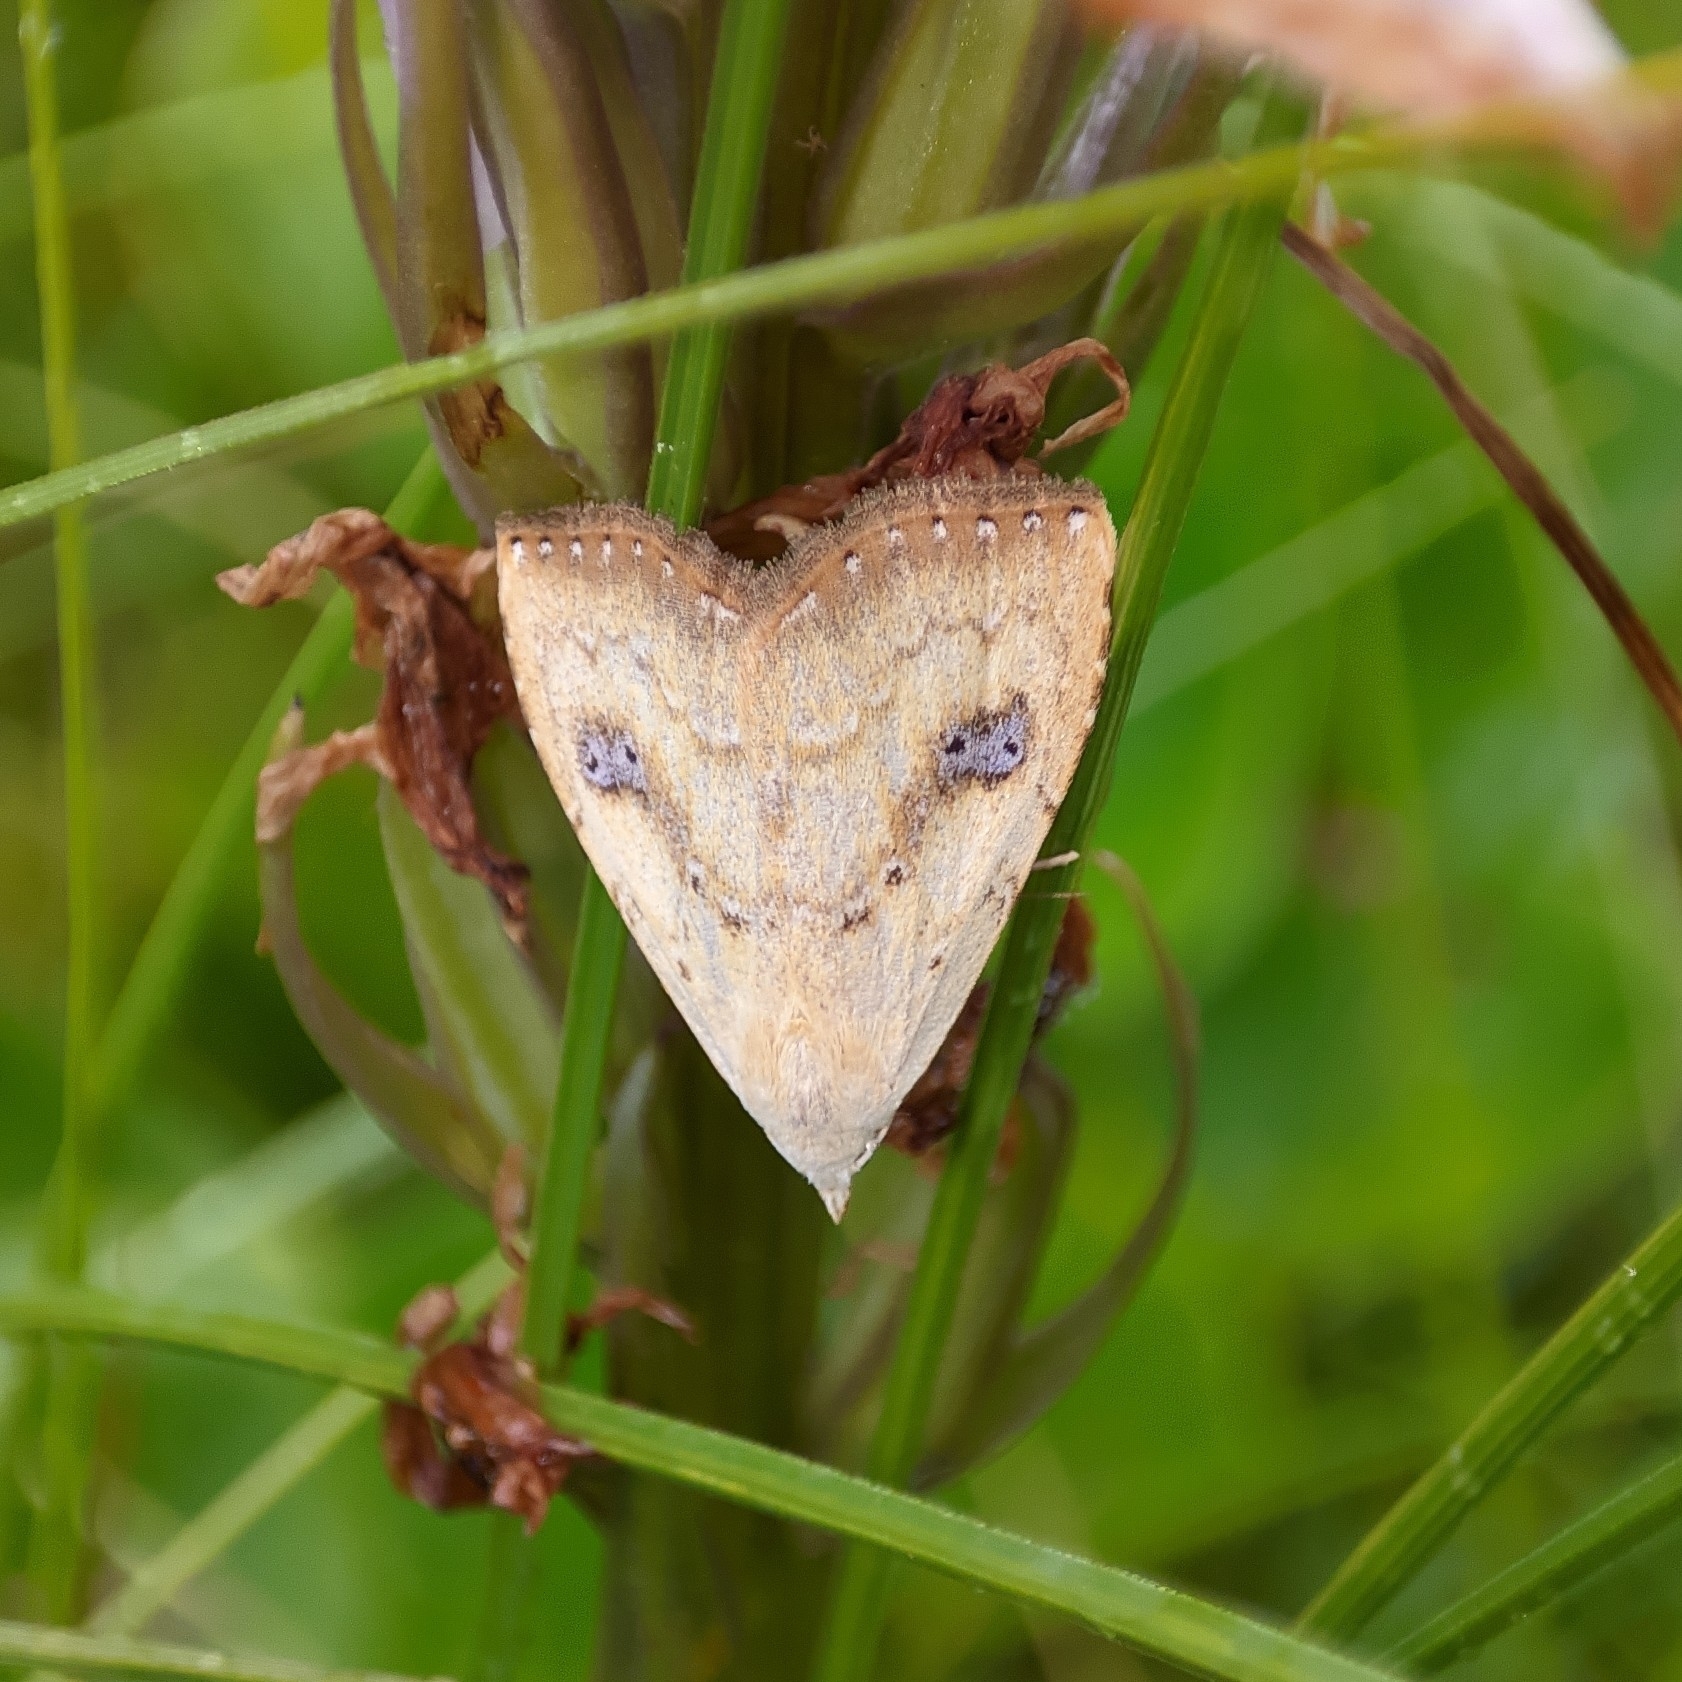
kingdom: Animalia
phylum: Arthropoda
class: Insecta
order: Lepidoptera
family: Erebidae
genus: Rivula
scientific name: Rivula sericealis
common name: Straw dot
